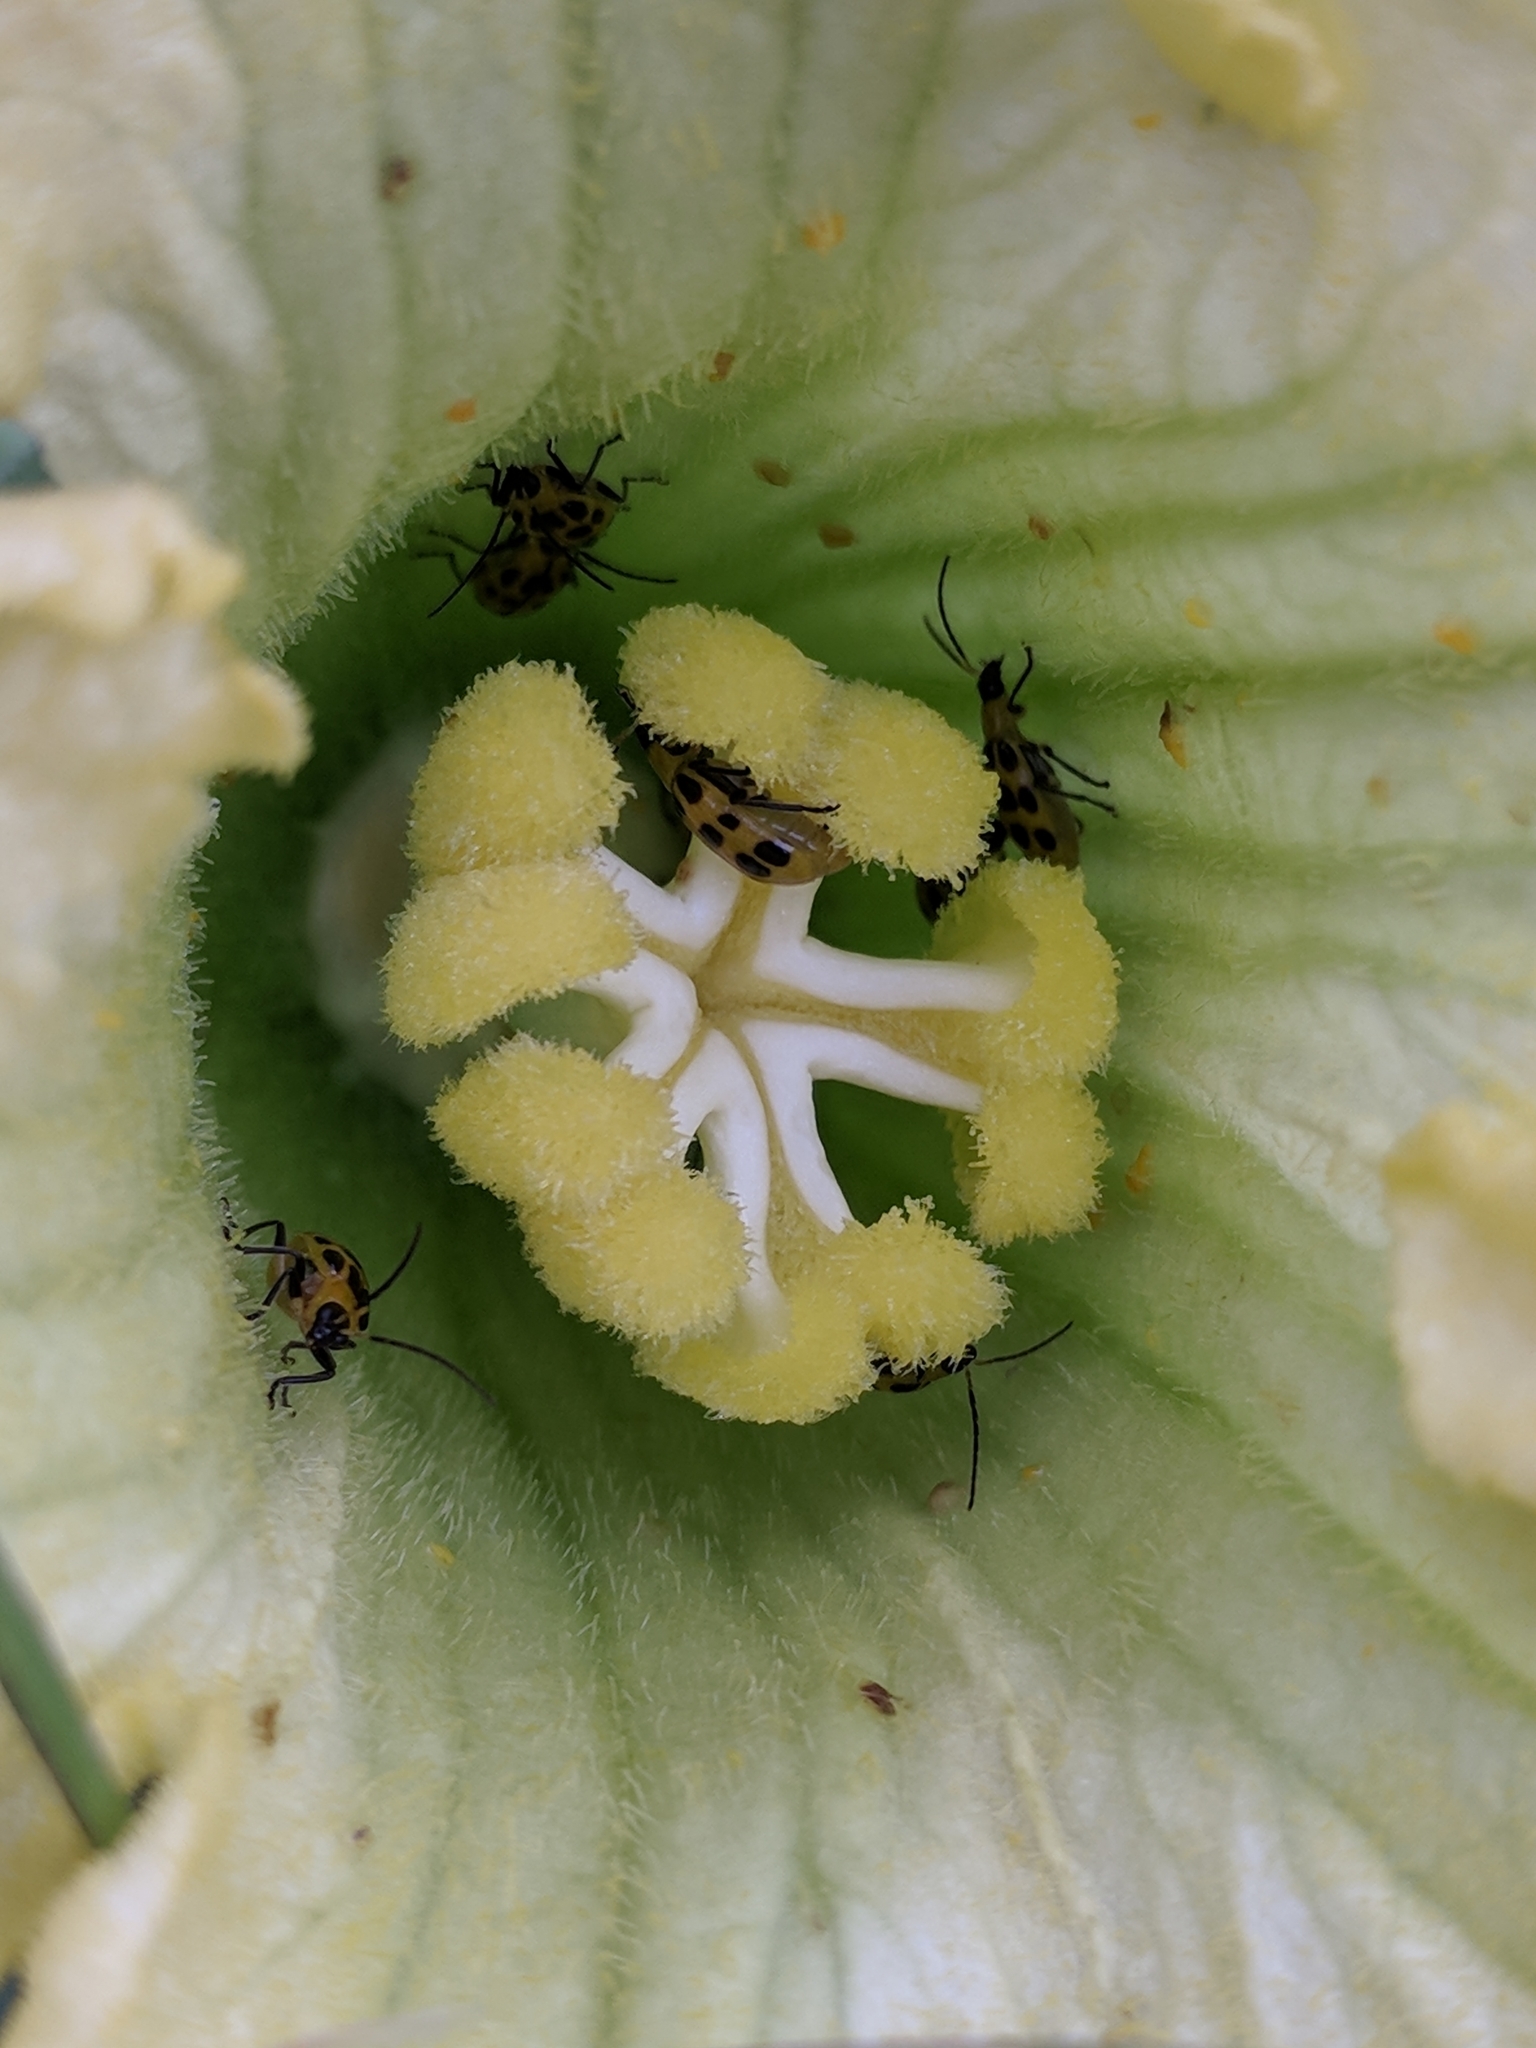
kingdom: Animalia
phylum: Arthropoda
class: Insecta
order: Coleoptera
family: Chrysomelidae
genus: Diabrotica
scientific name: Diabrotica undecimpunctata
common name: Spotted cucumber beetle
